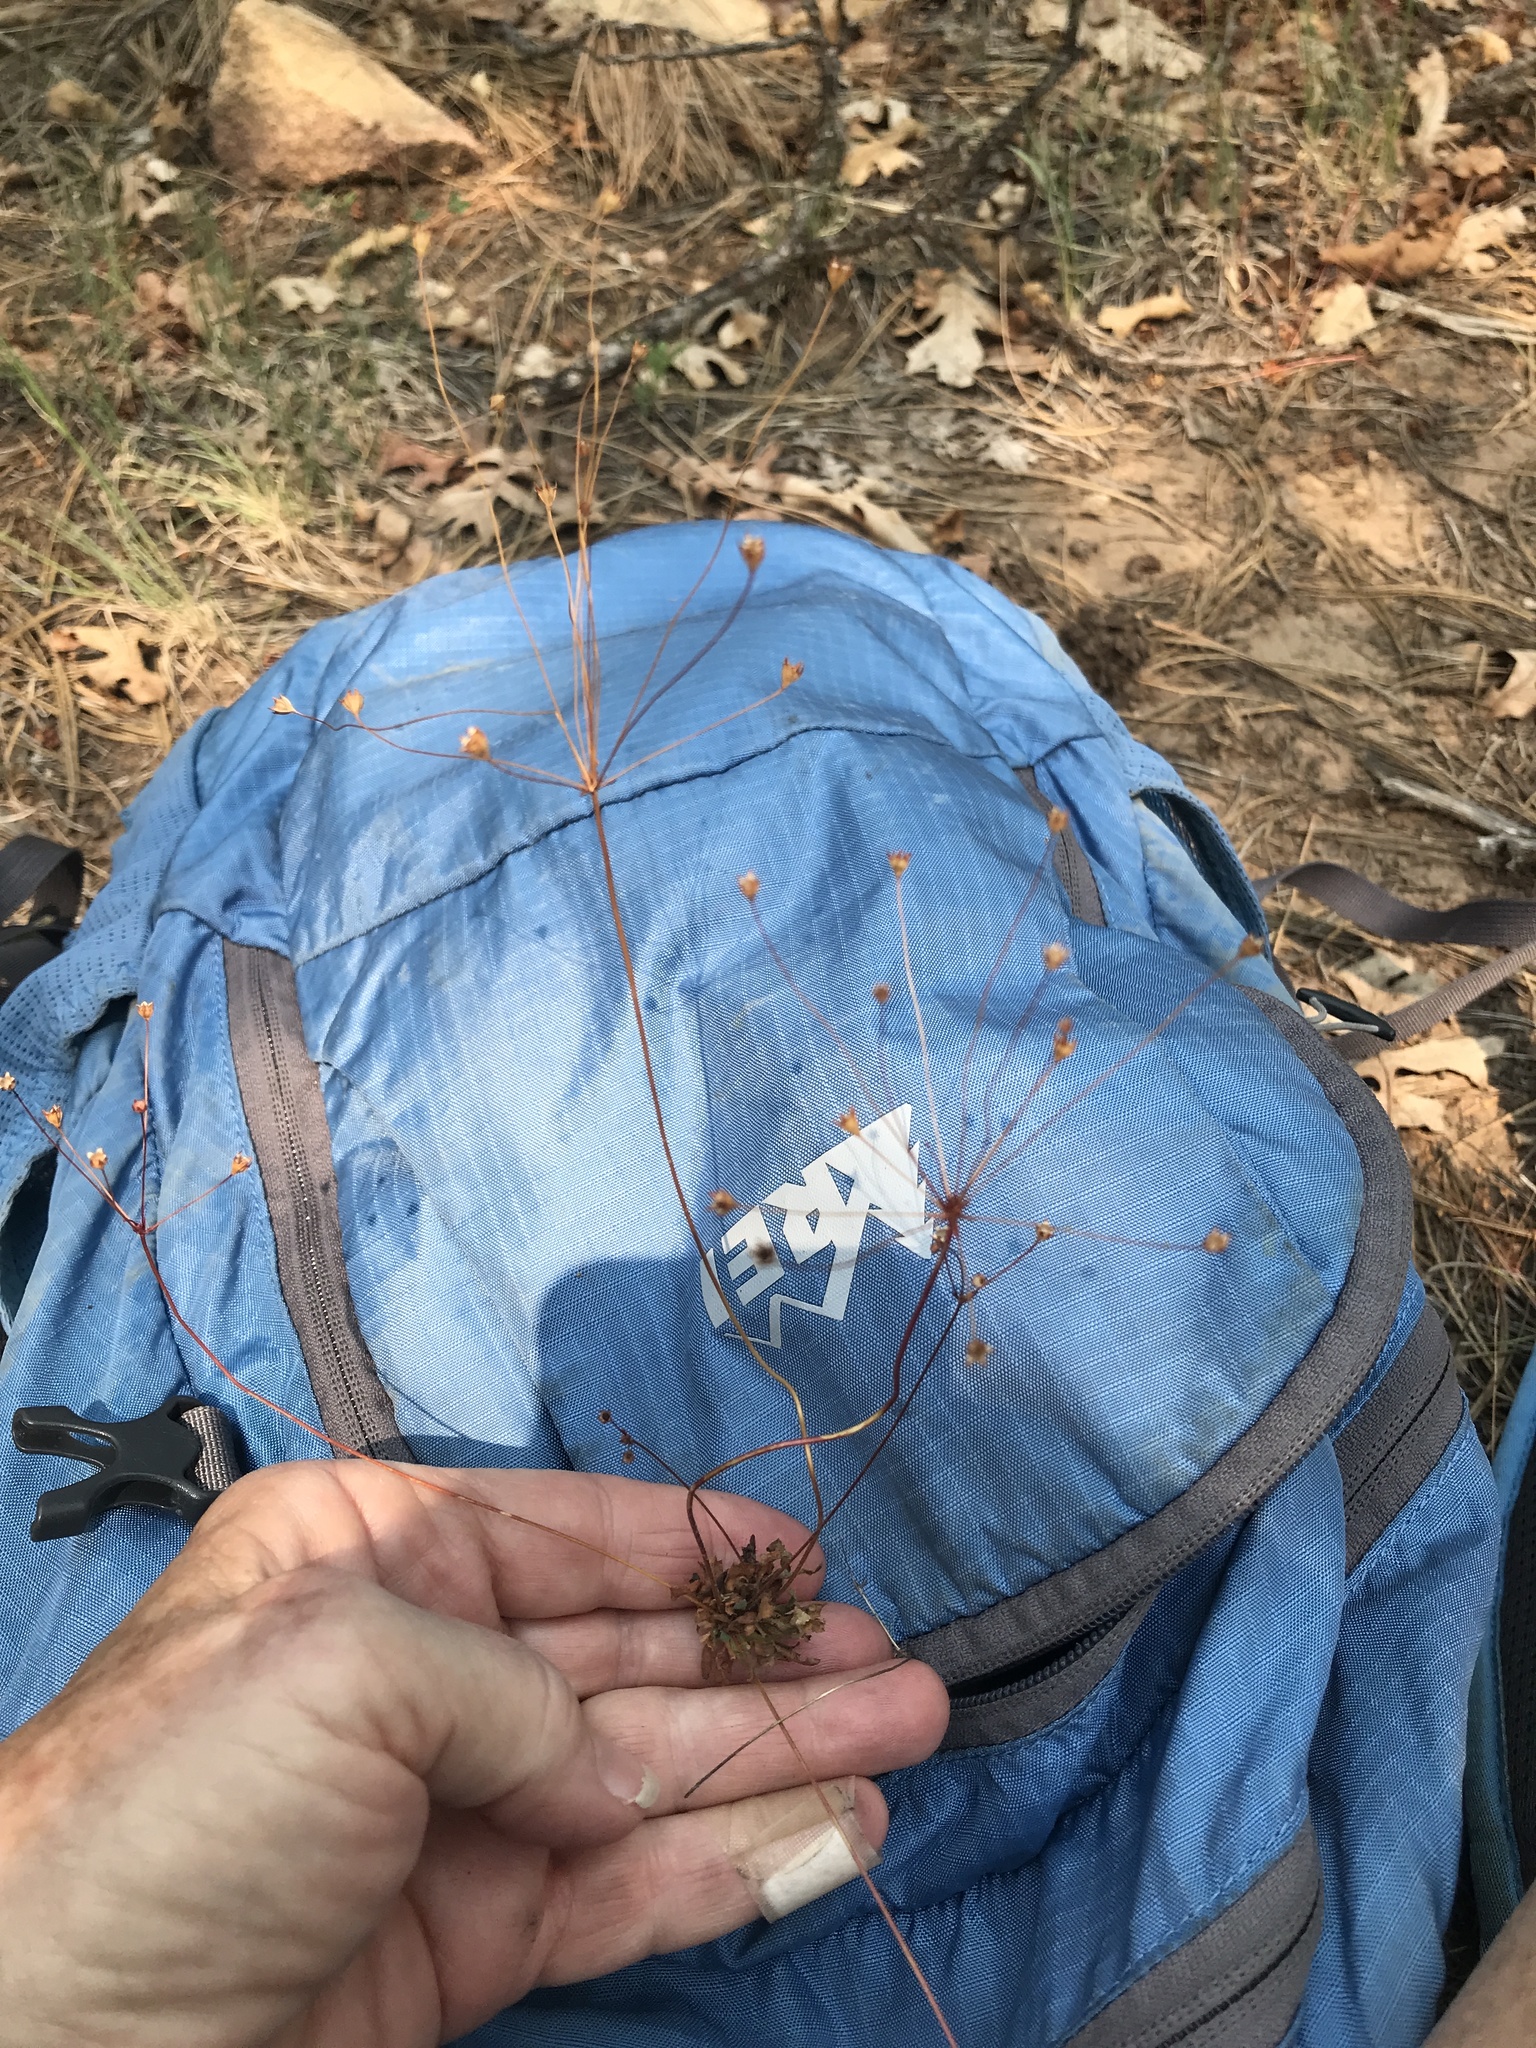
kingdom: Plantae
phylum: Tracheophyta
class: Magnoliopsida
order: Ericales
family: Primulaceae
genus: Androsace
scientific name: Androsace septentrionalis
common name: Hairy northern fairy-candelabra
